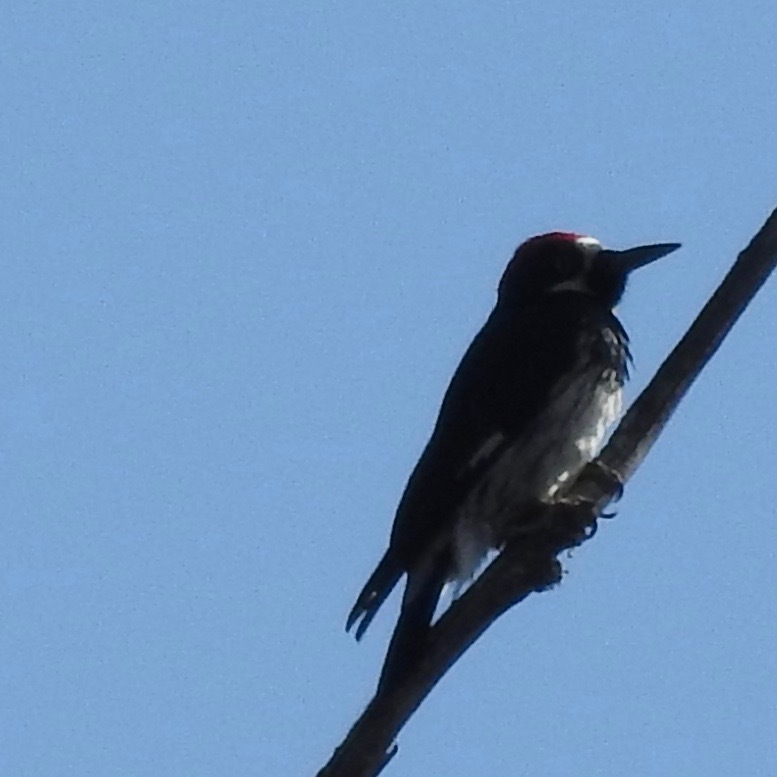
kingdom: Animalia
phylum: Chordata
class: Aves
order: Piciformes
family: Picidae
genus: Melanerpes
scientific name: Melanerpes formicivorus
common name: Acorn woodpecker
